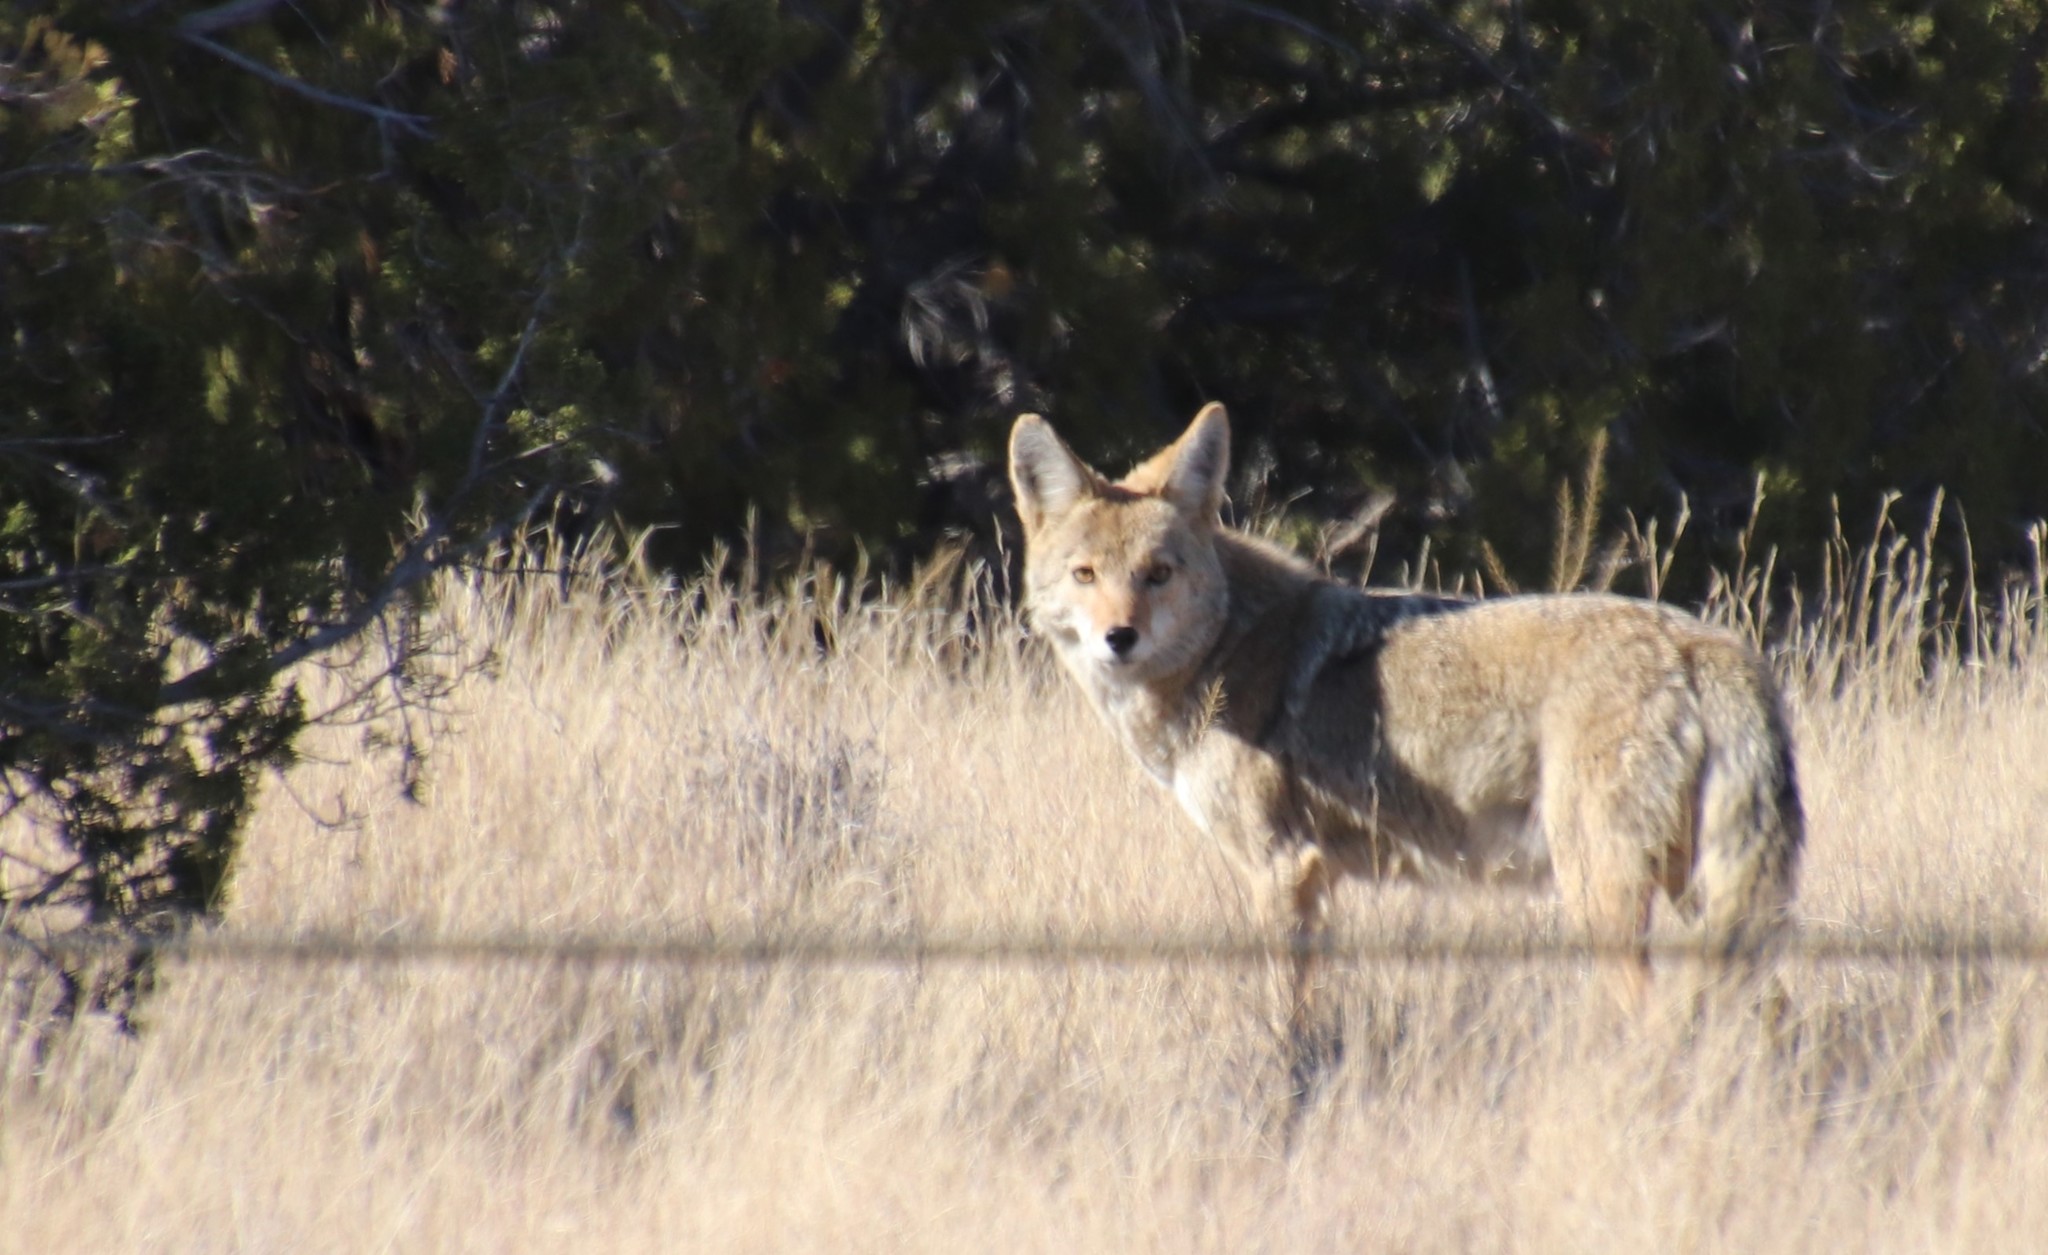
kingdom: Animalia
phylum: Chordata
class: Mammalia
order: Carnivora
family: Canidae
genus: Canis
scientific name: Canis latrans
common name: Coyote
